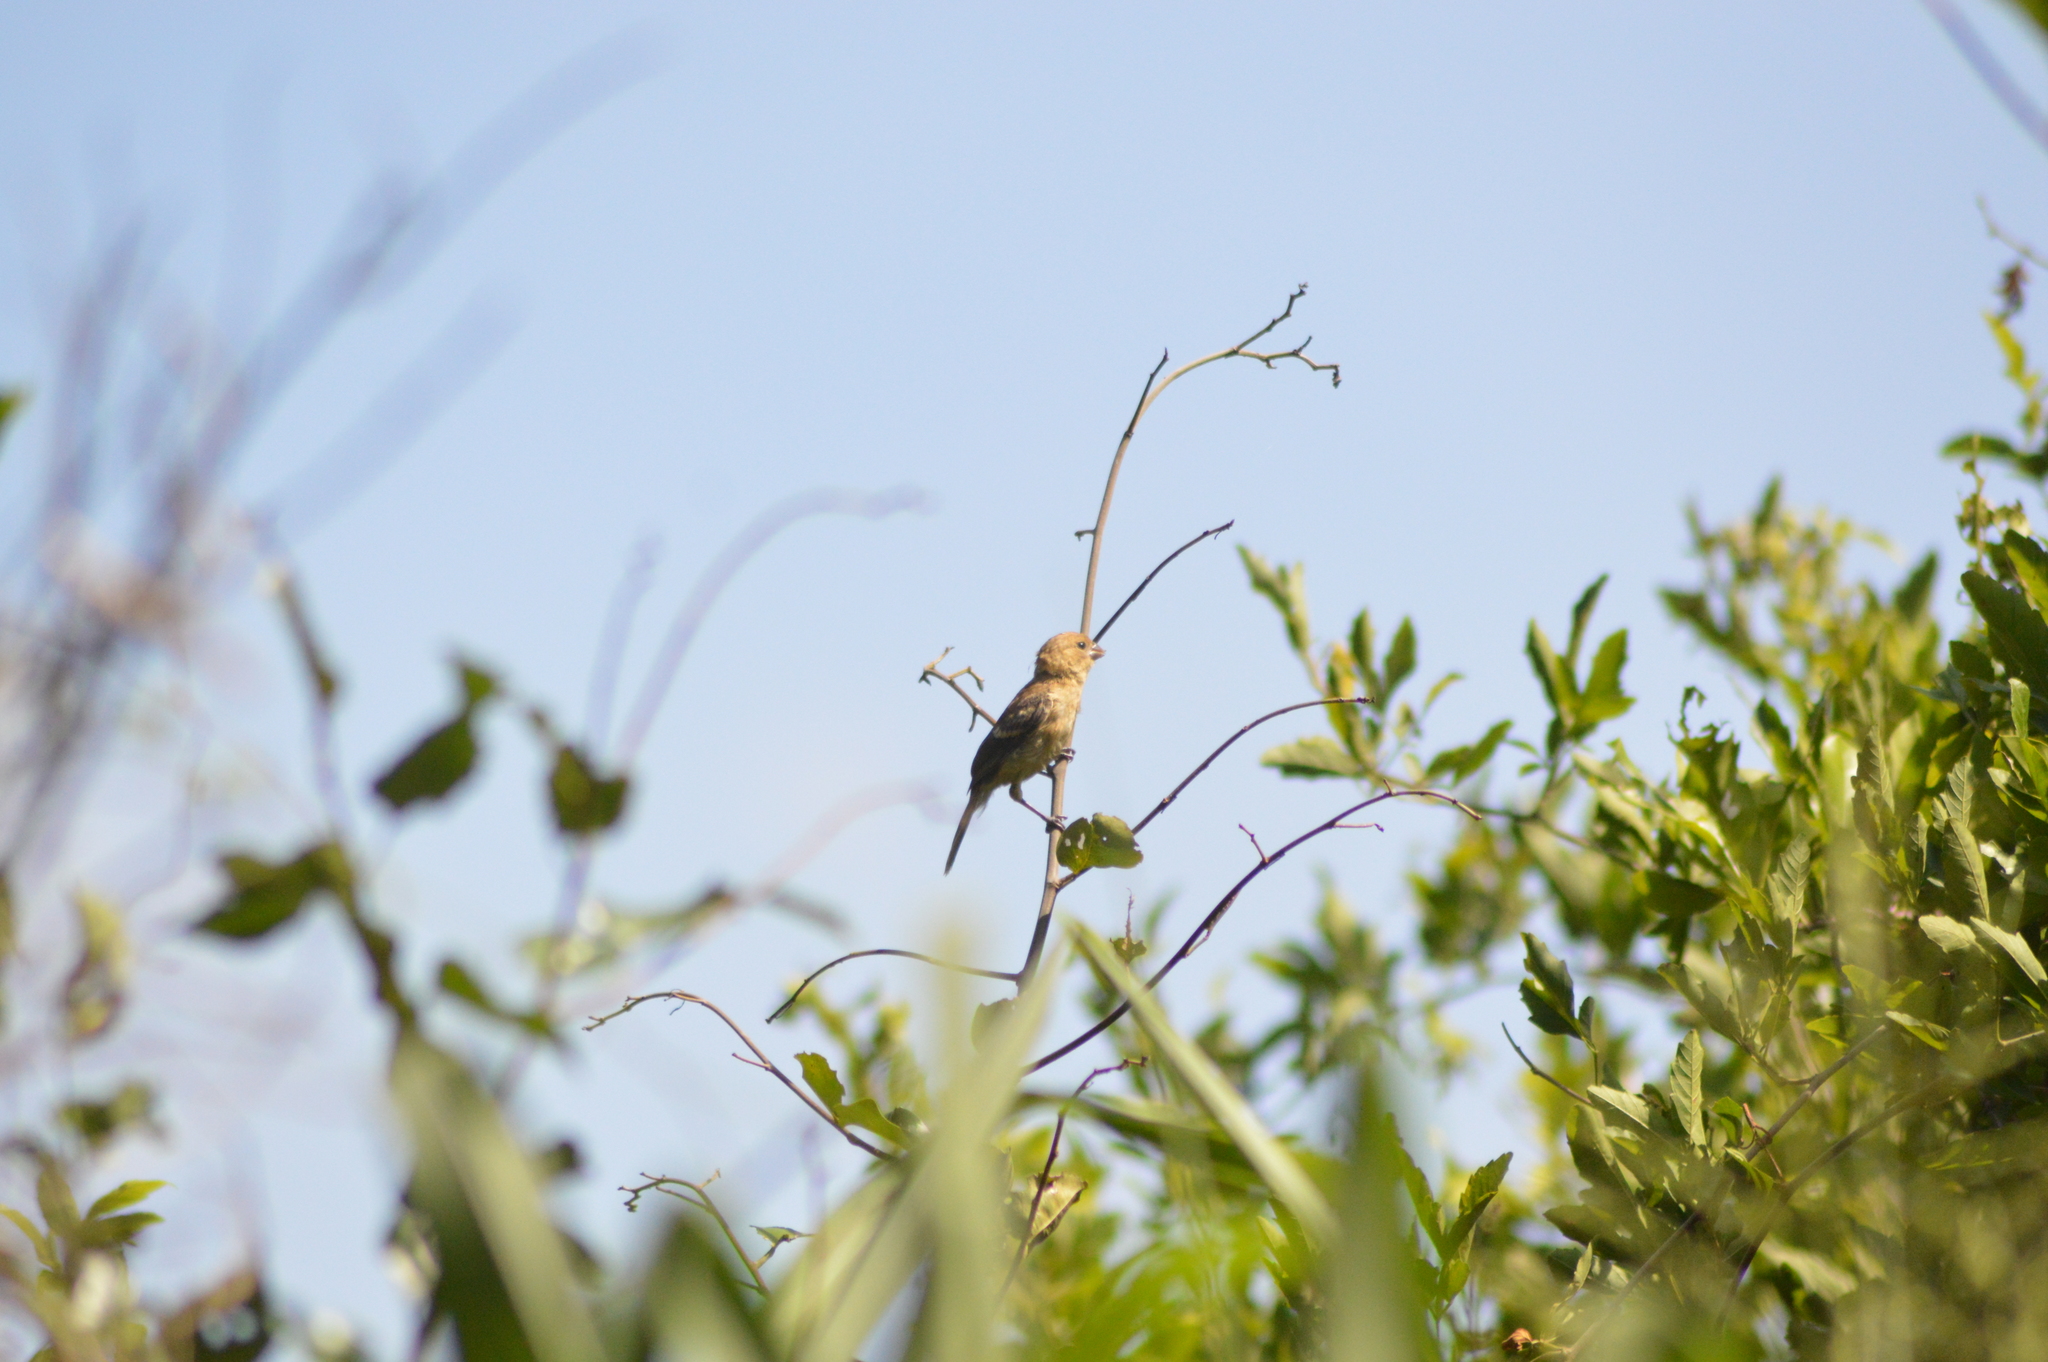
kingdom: Animalia
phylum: Chordata
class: Aves
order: Passeriformes
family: Thraupidae
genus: Sporophila
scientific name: Sporophila morelleti
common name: Morelet's seedeater
